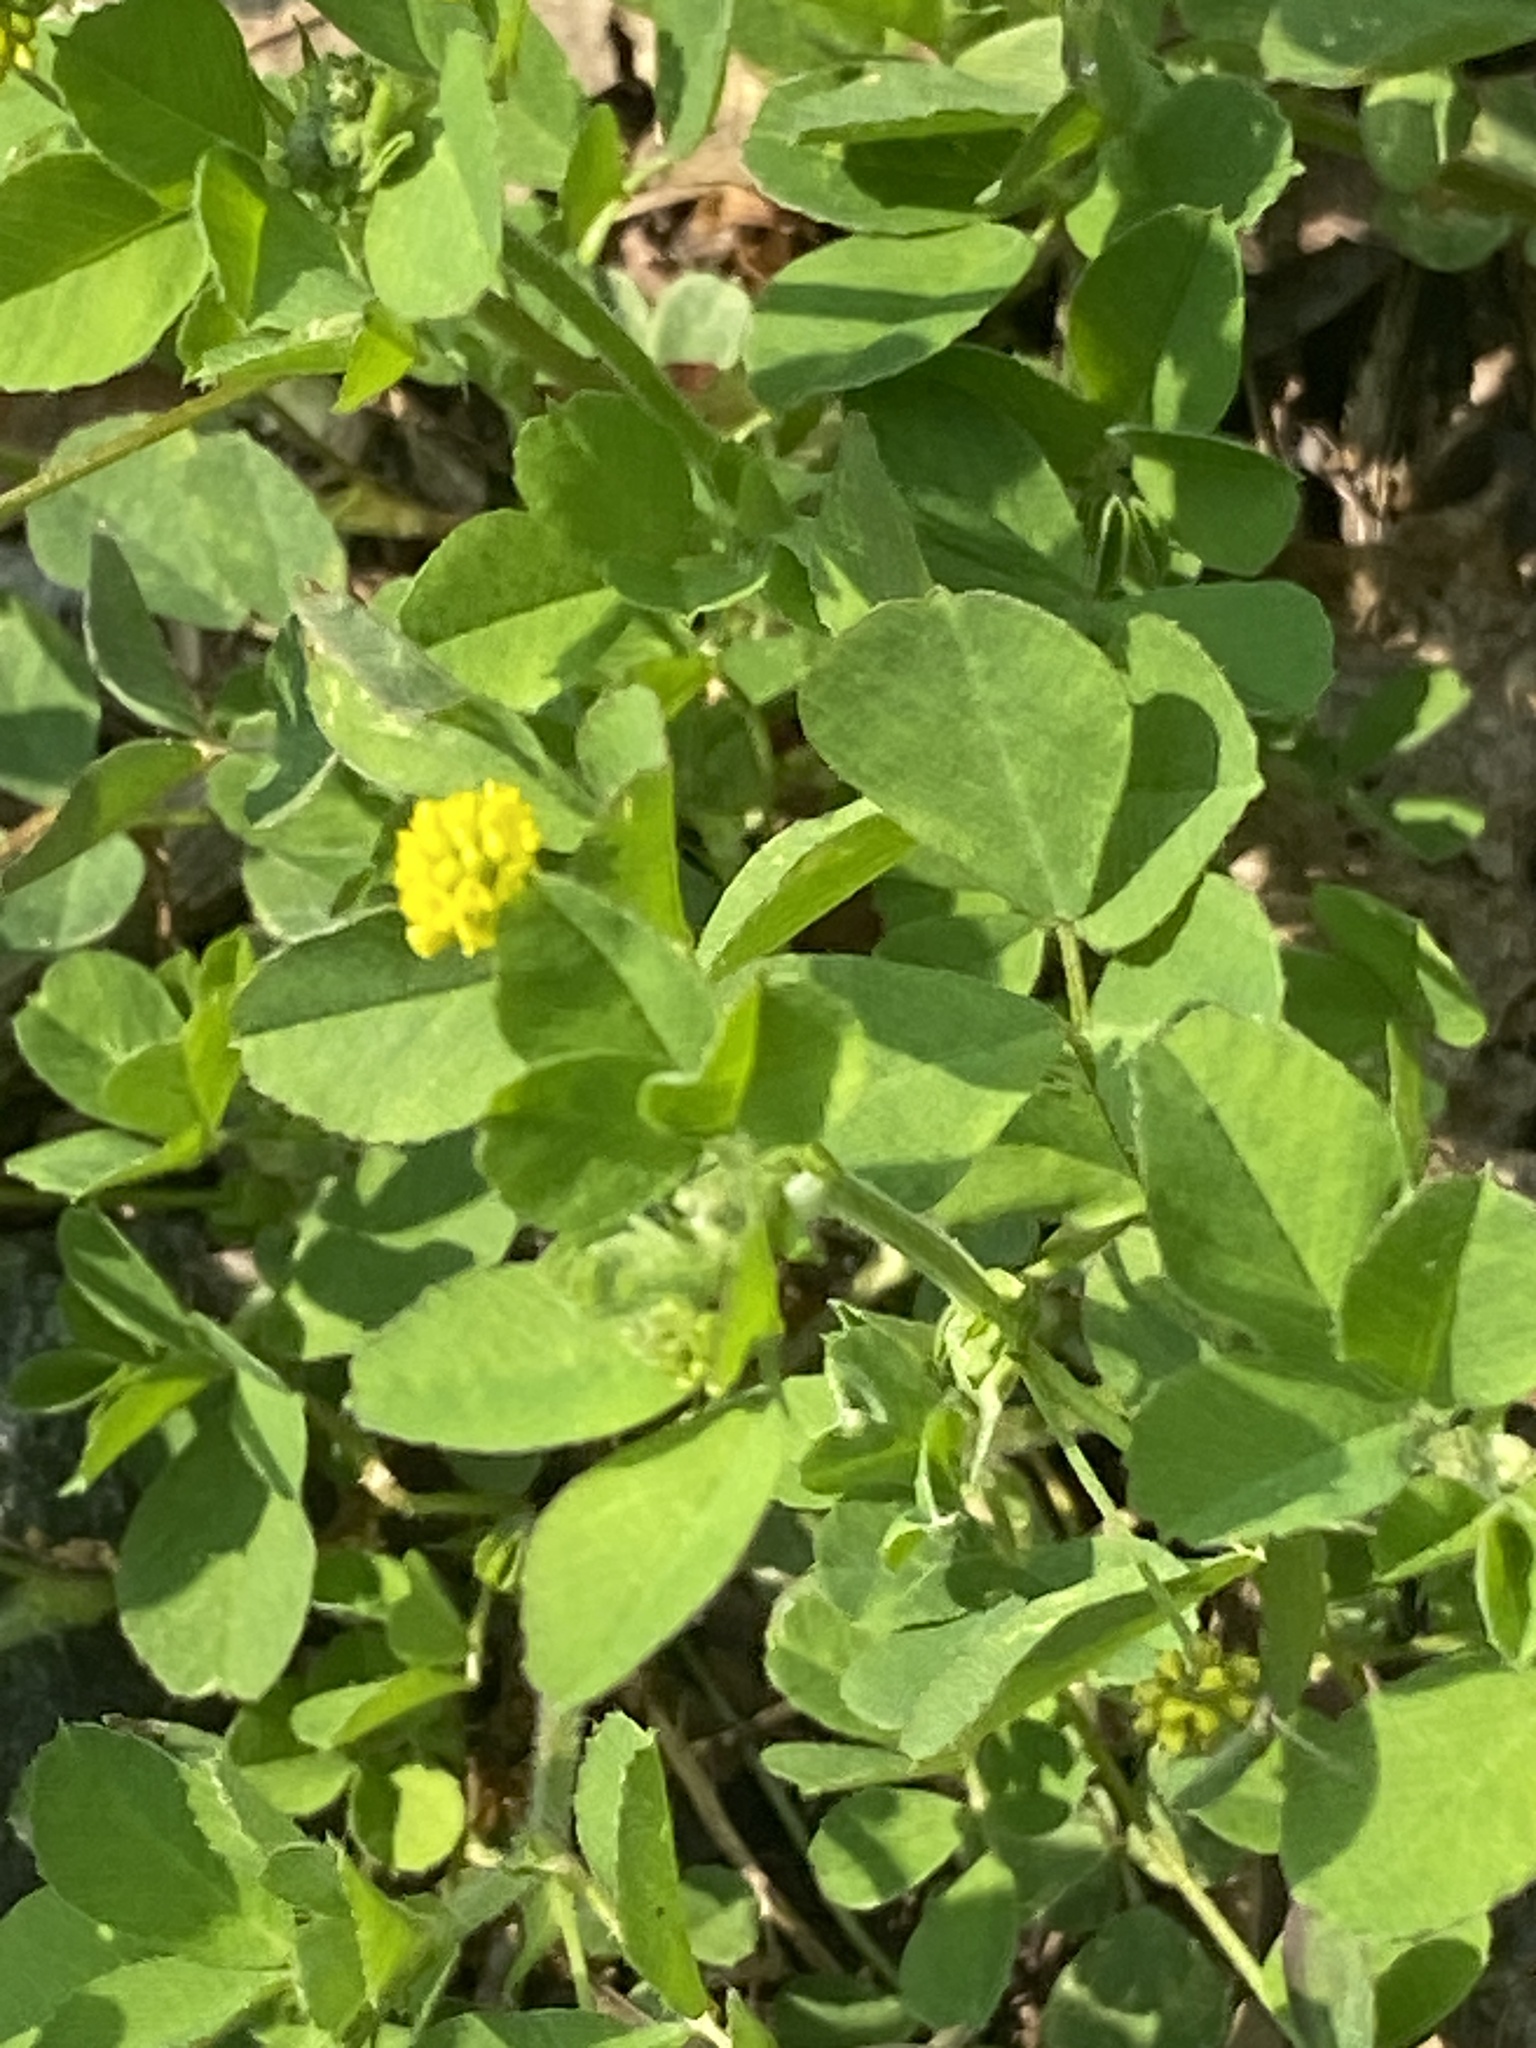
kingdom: Plantae
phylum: Tracheophyta
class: Magnoliopsida
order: Fabales
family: Fabaceae
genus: Medicago
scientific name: Medicago lupulina
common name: Black medick
